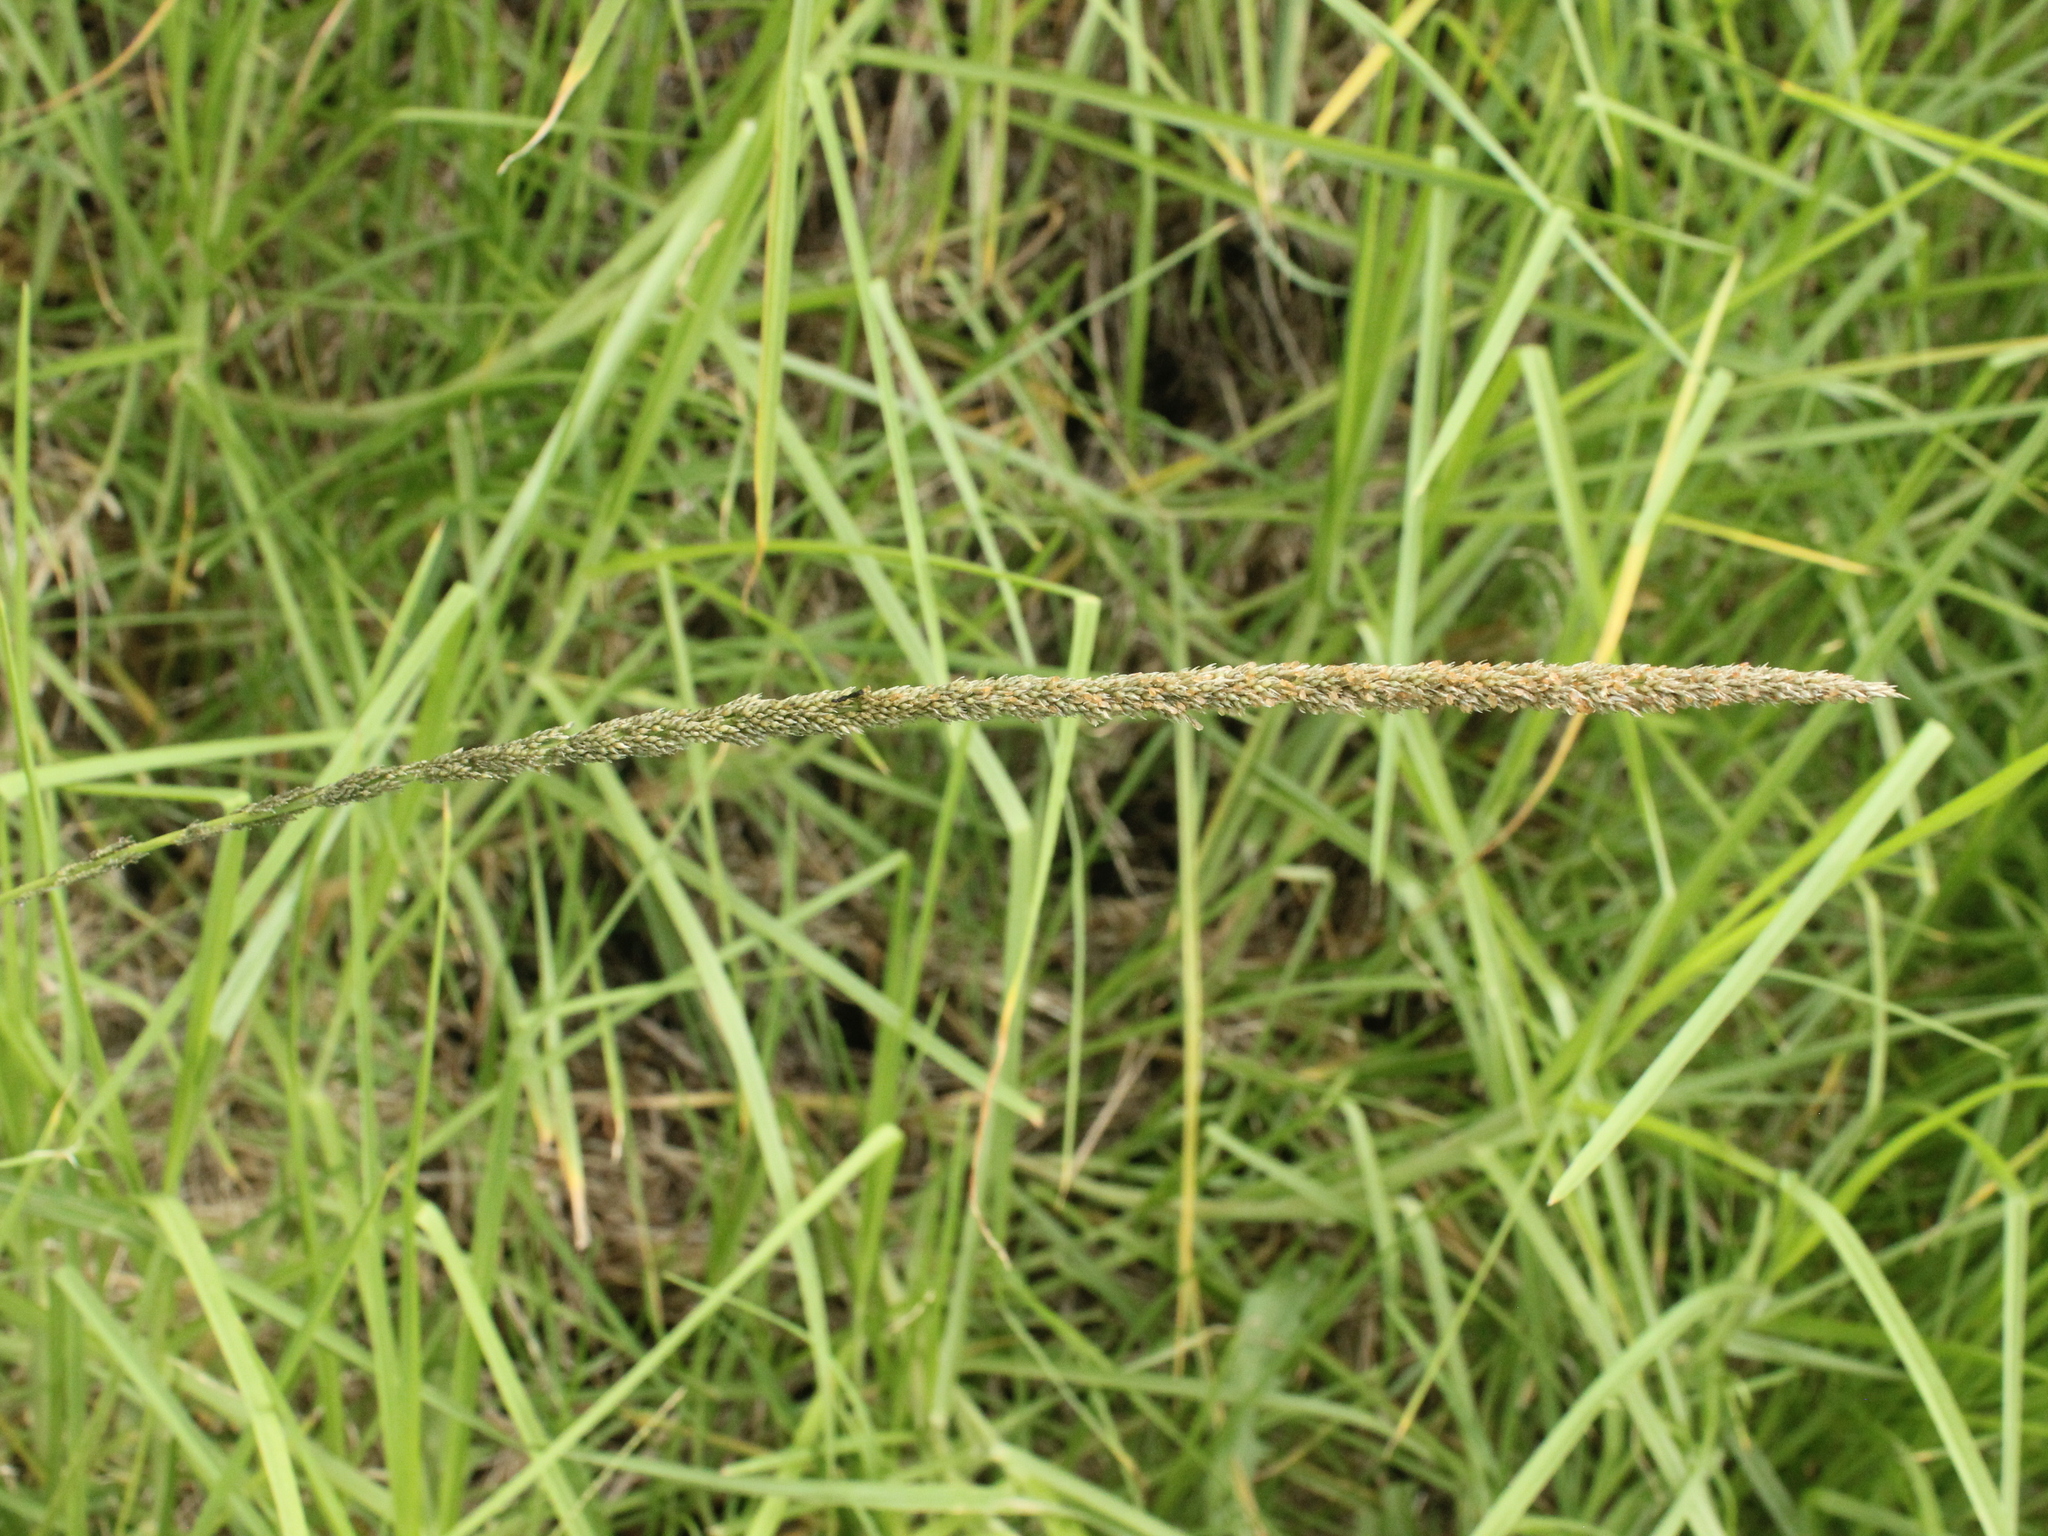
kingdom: Plantae
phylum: Tracheophyta
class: Liliopsida
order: Poales
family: Poaceae
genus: Sporobolus
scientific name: Sporobolus africanus
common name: African dropseed
